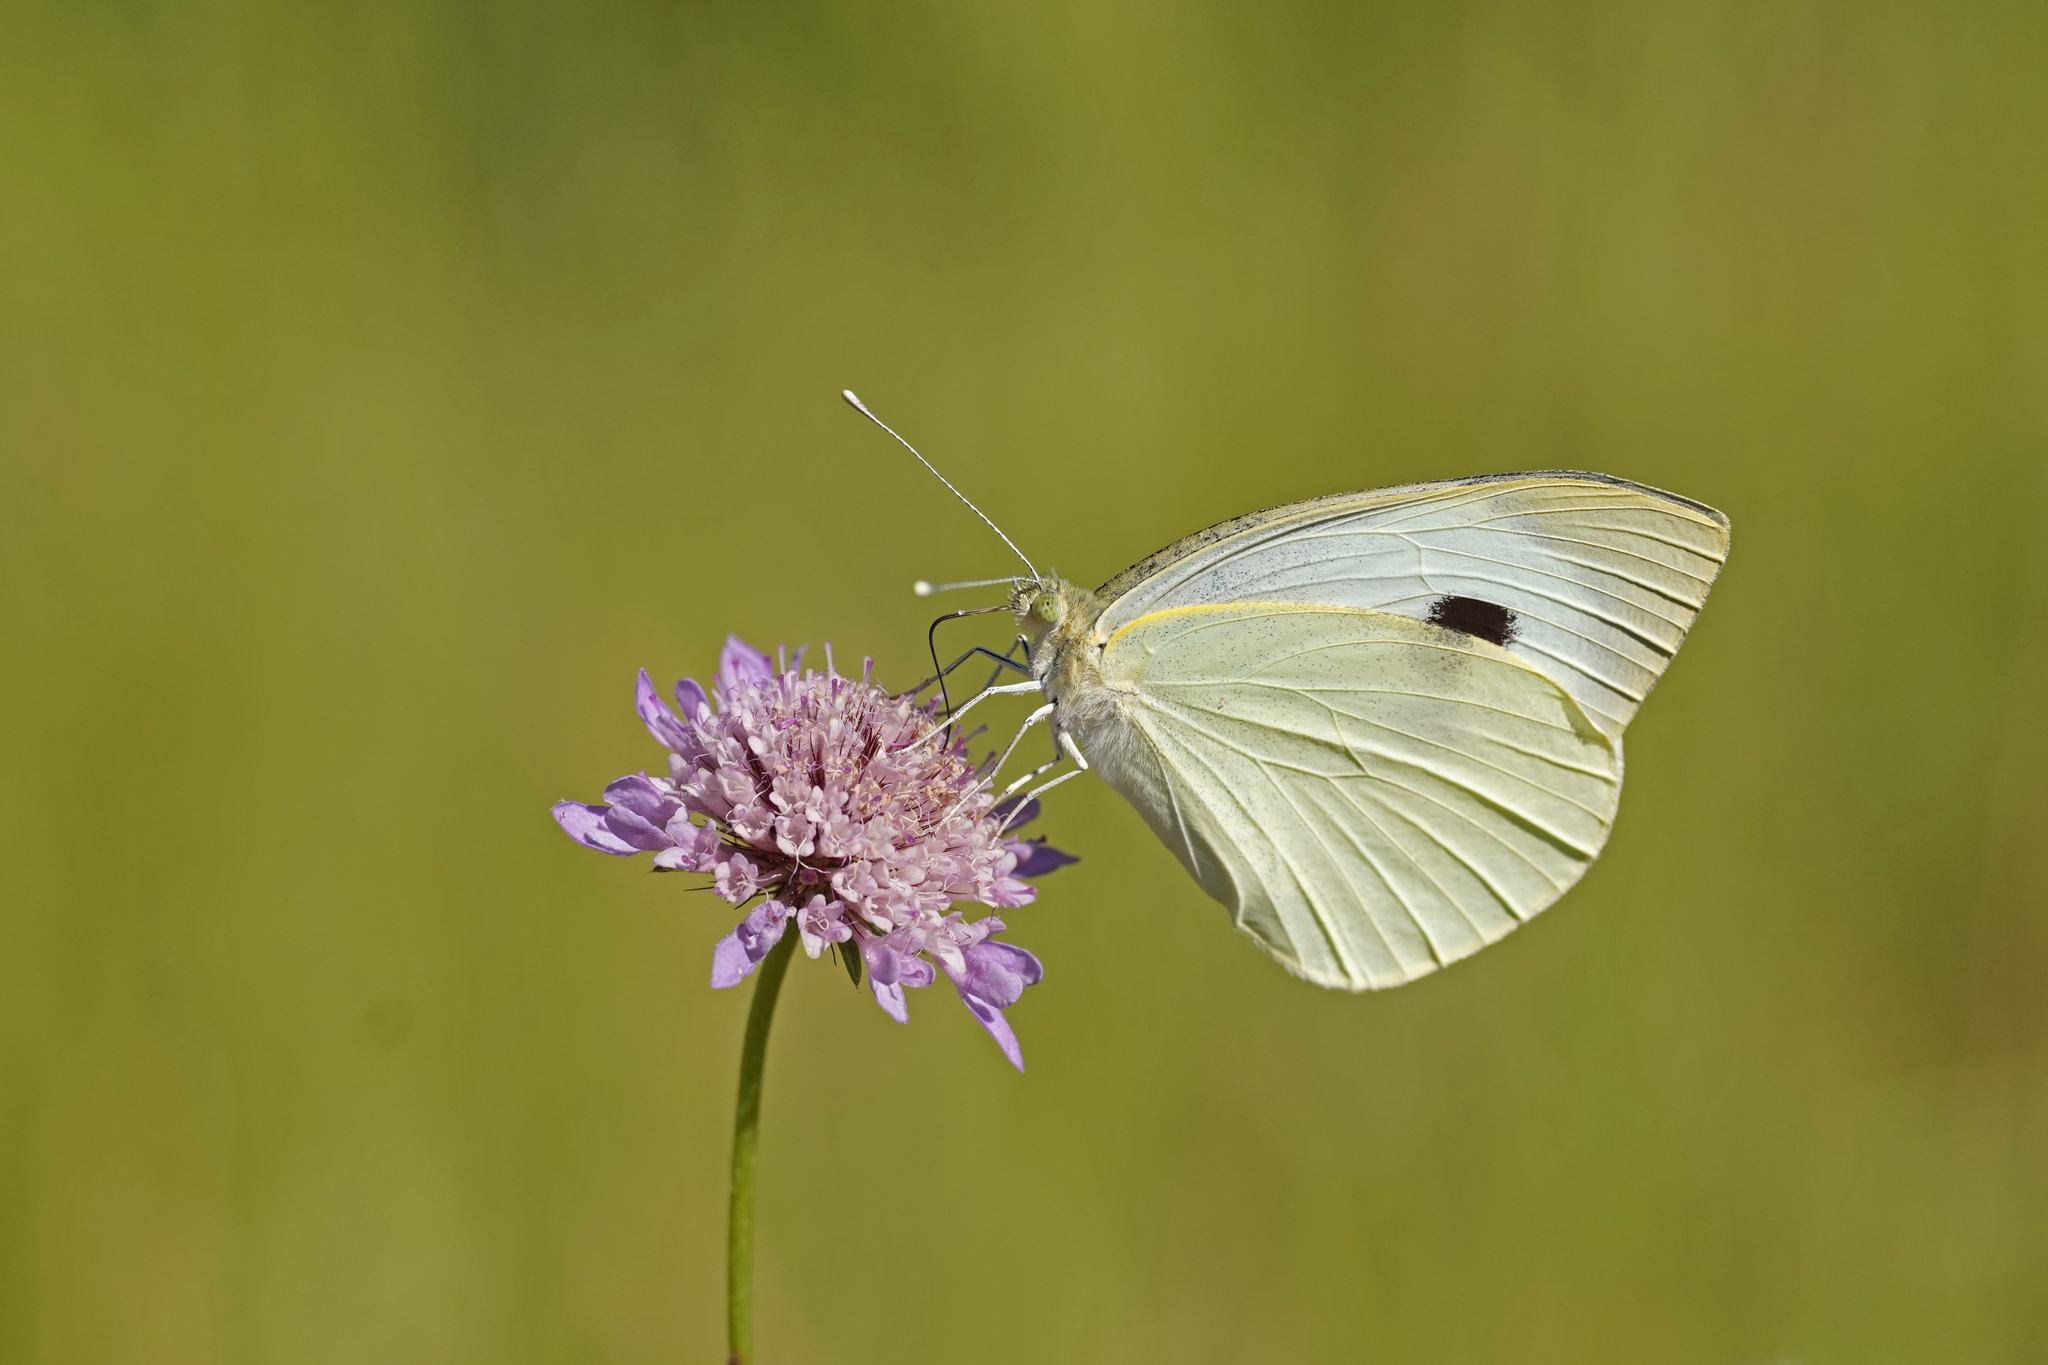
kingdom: Animalia
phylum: Arthropoda
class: Insecta
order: Lepidoptera
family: Pieridae
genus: Pieris
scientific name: Pieris brassicae
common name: Large white
